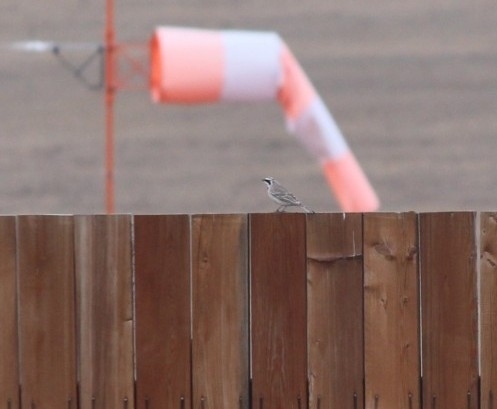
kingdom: Animalia
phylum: Chordata
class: Aves
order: Passeriformes
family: Alaudidae
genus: Eremophila
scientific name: Eremophila alpestris
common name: Horned lark
